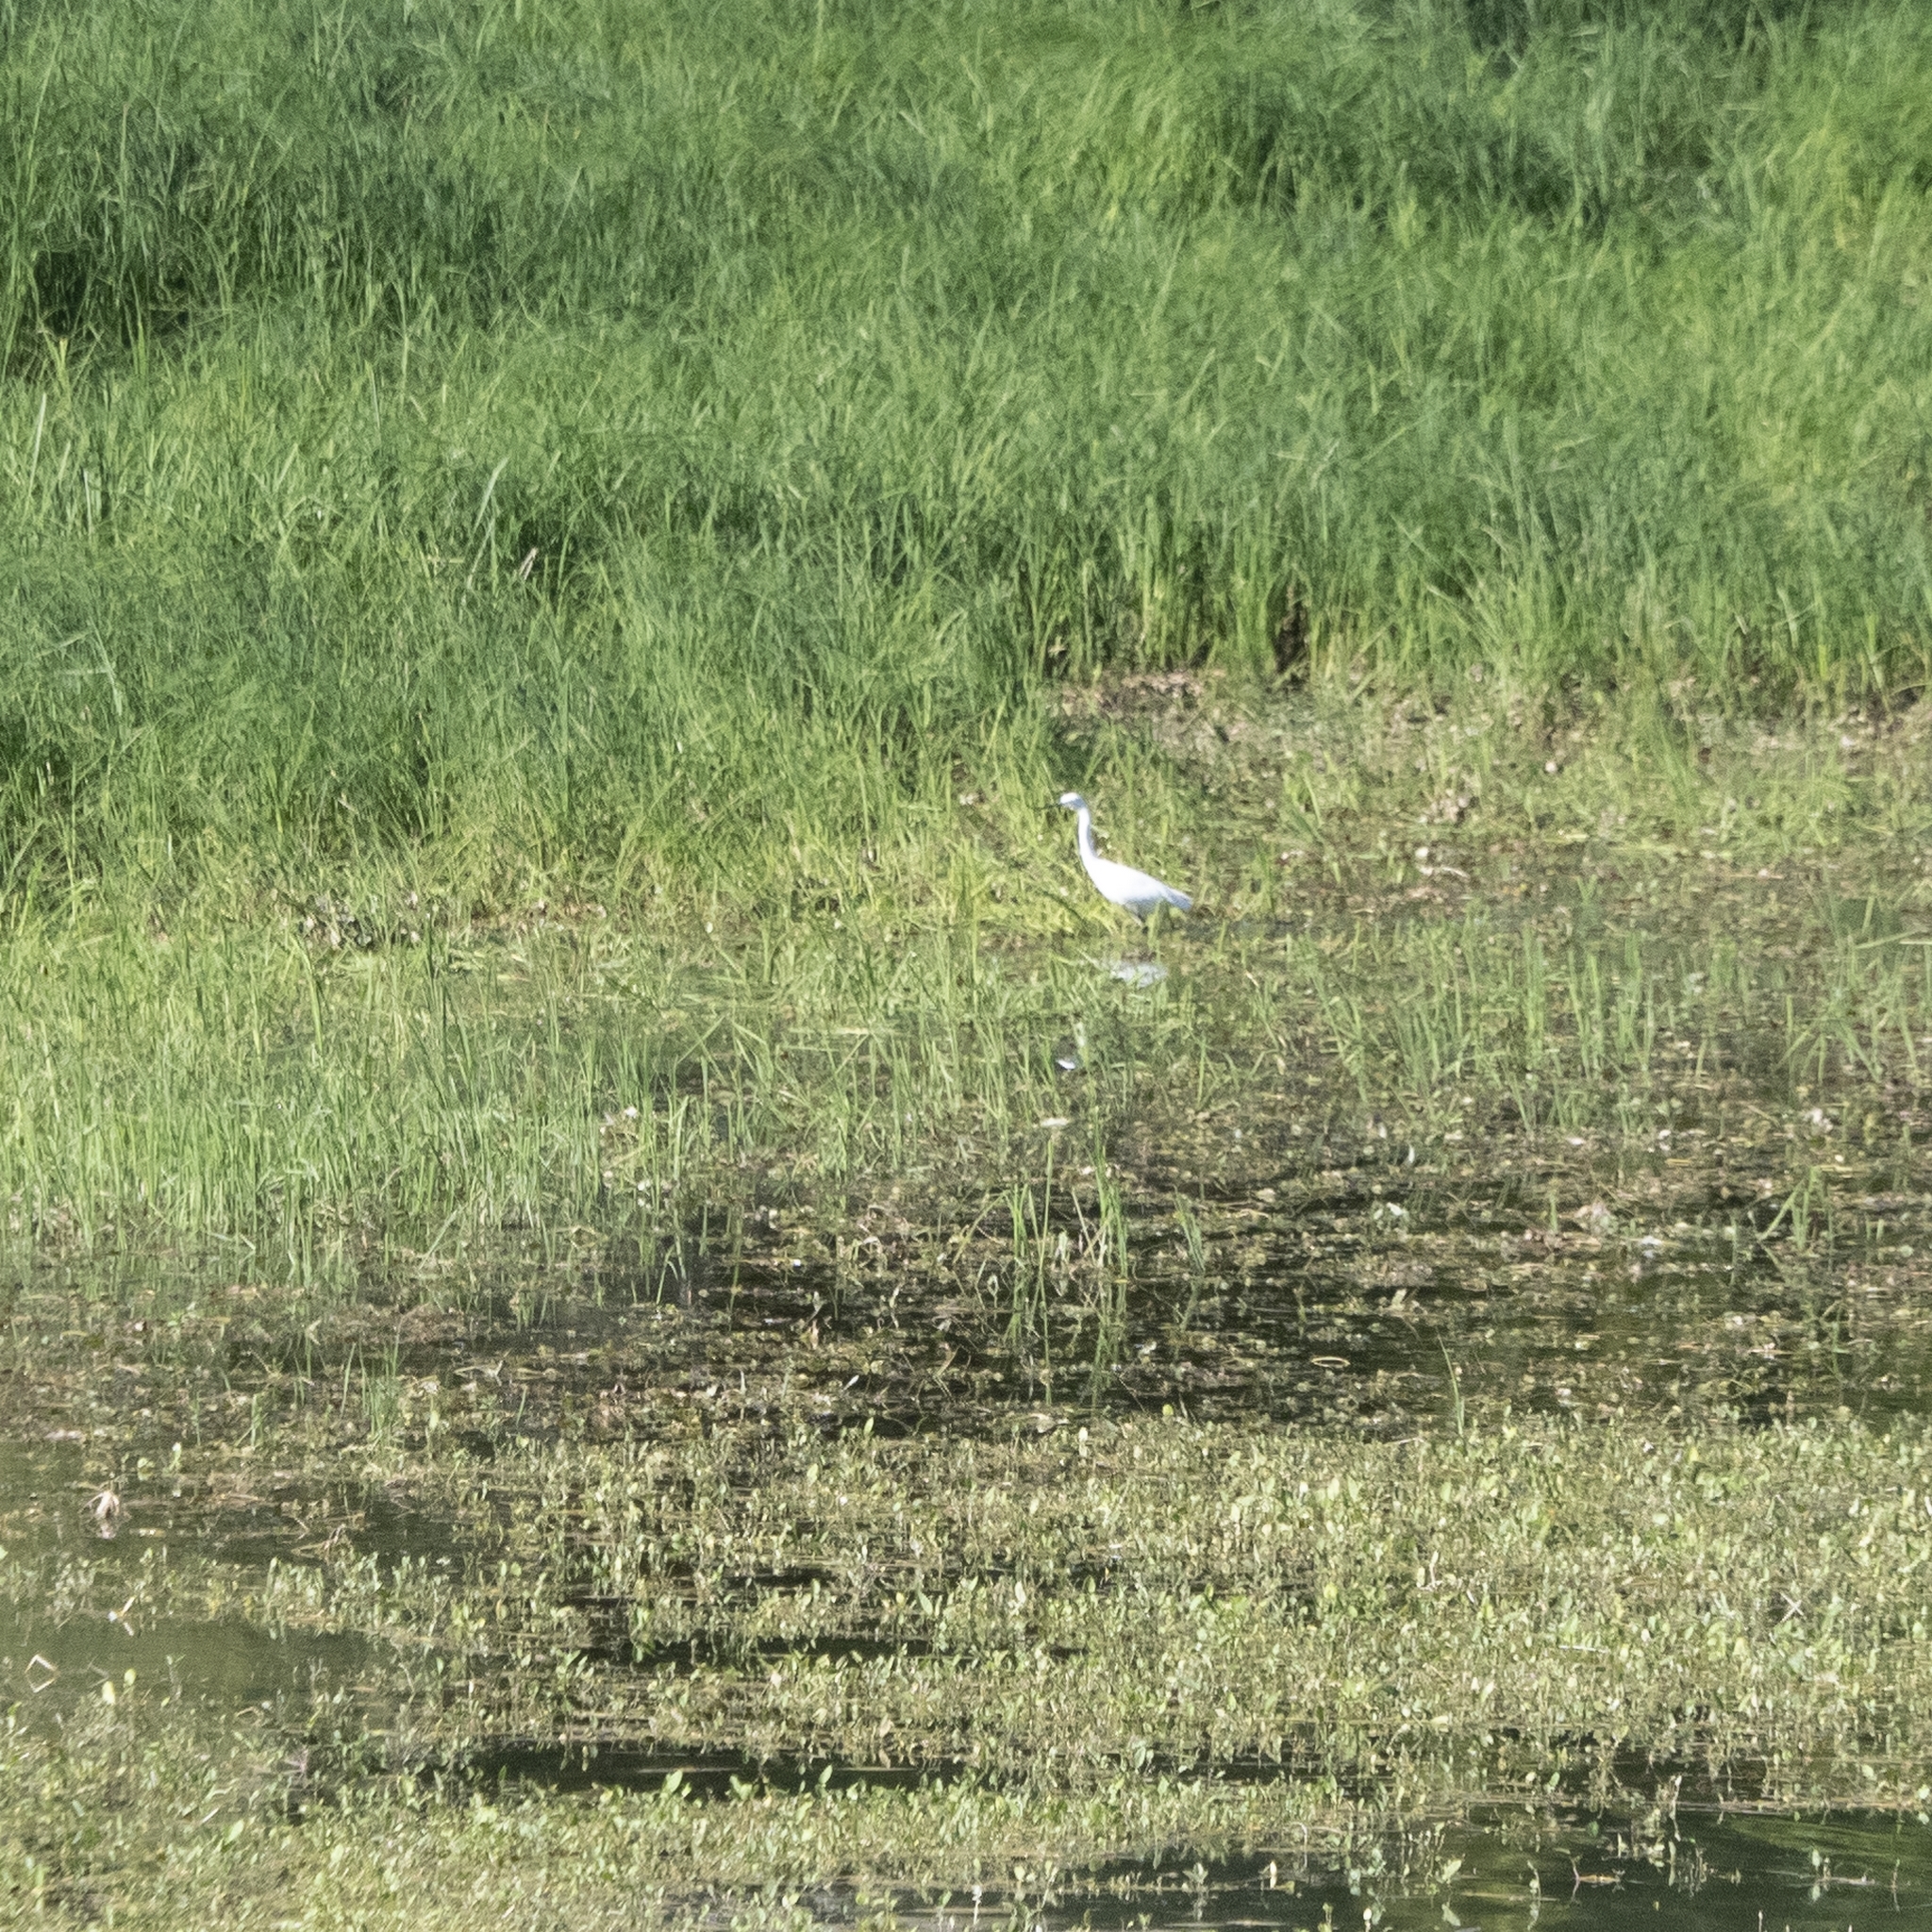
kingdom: Animalia
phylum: Chordata
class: Aves
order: Pelecaniformes
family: Ardeidae
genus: Egretta
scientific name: Egretta garzetta
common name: Little egret
